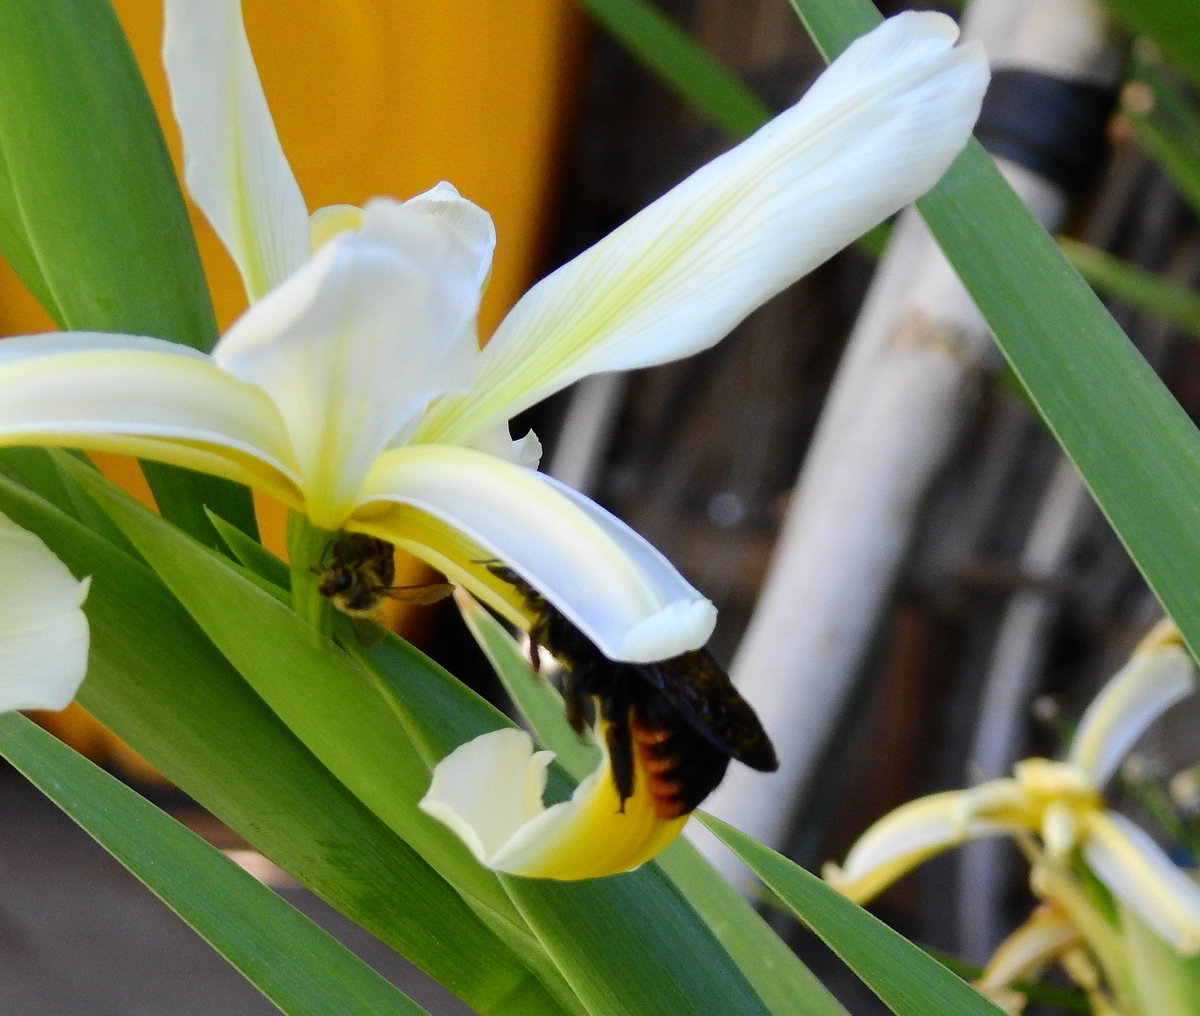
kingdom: Animalia
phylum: Arthropoda
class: Insecta
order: Hymenoptera
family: Apidae
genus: Xylocopa
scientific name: Xylocopa augusti
